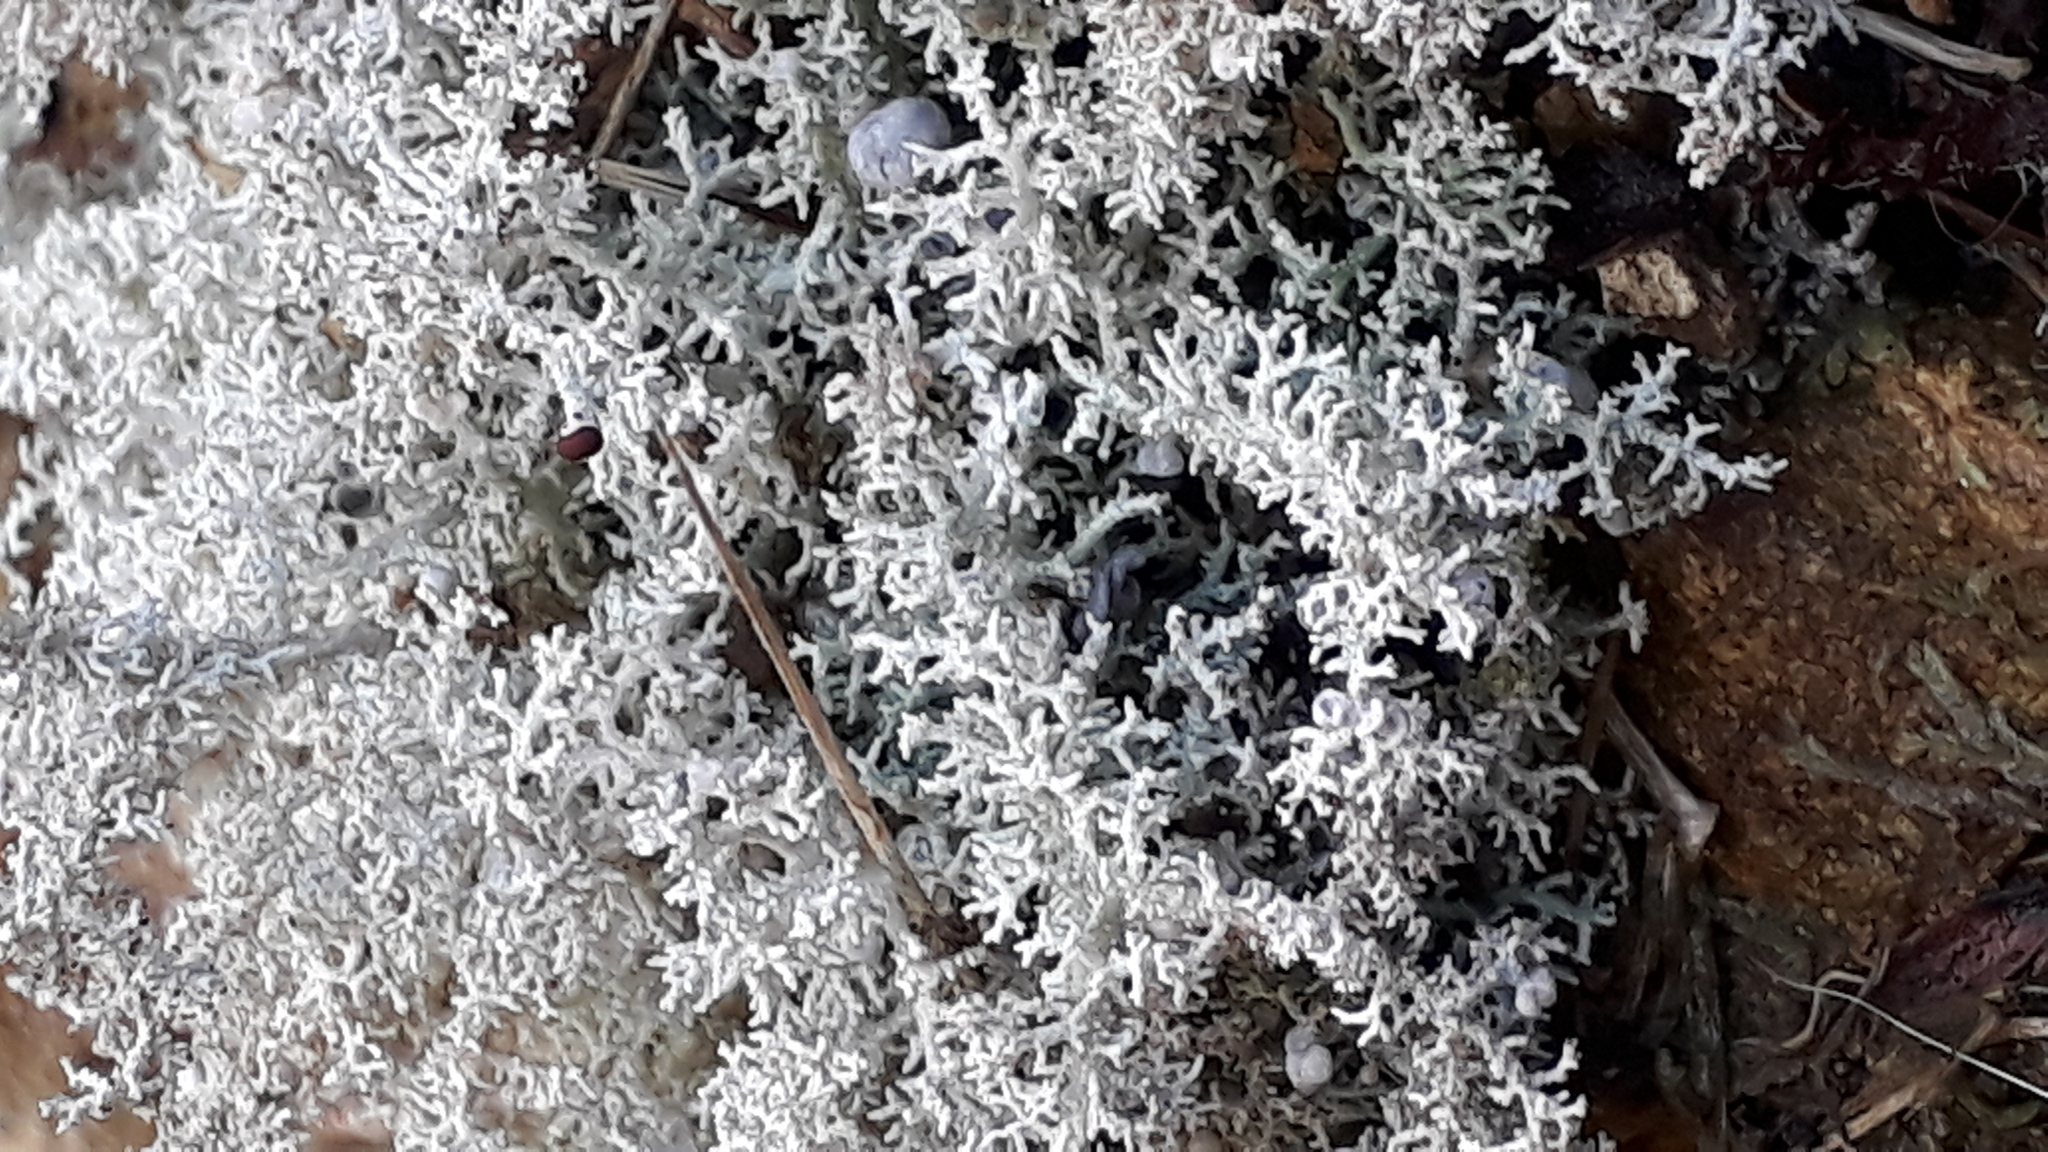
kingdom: Fungi
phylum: Ascomycota
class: Lecanoromycetes
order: Lecanorales
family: Stereocaulaceae
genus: Stereocaulon
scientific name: Stereocaulon ramulosum
